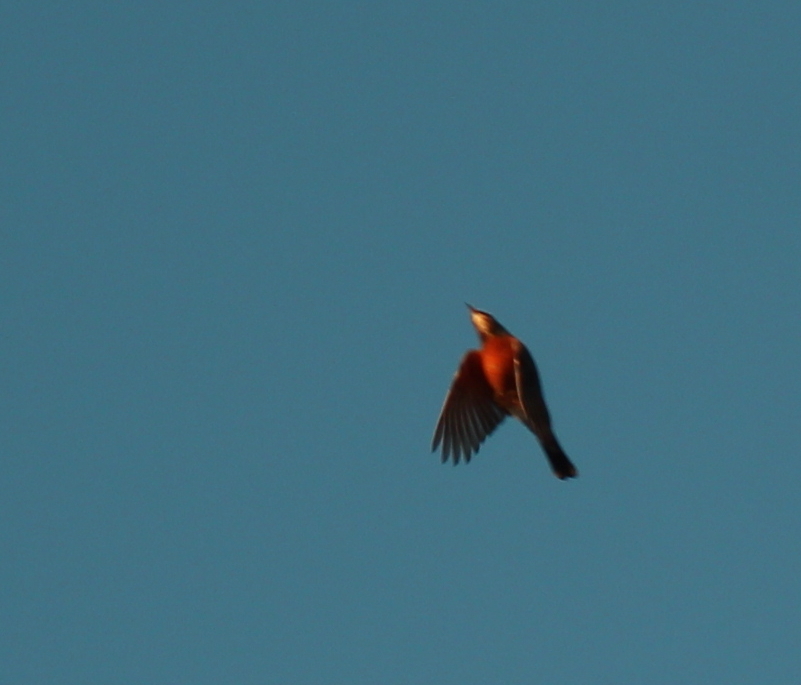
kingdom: Animalia
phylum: Chordata
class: Aves
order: Passeriformes
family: Turdidae
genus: Turdus
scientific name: Turdus migratorius
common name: American robin
